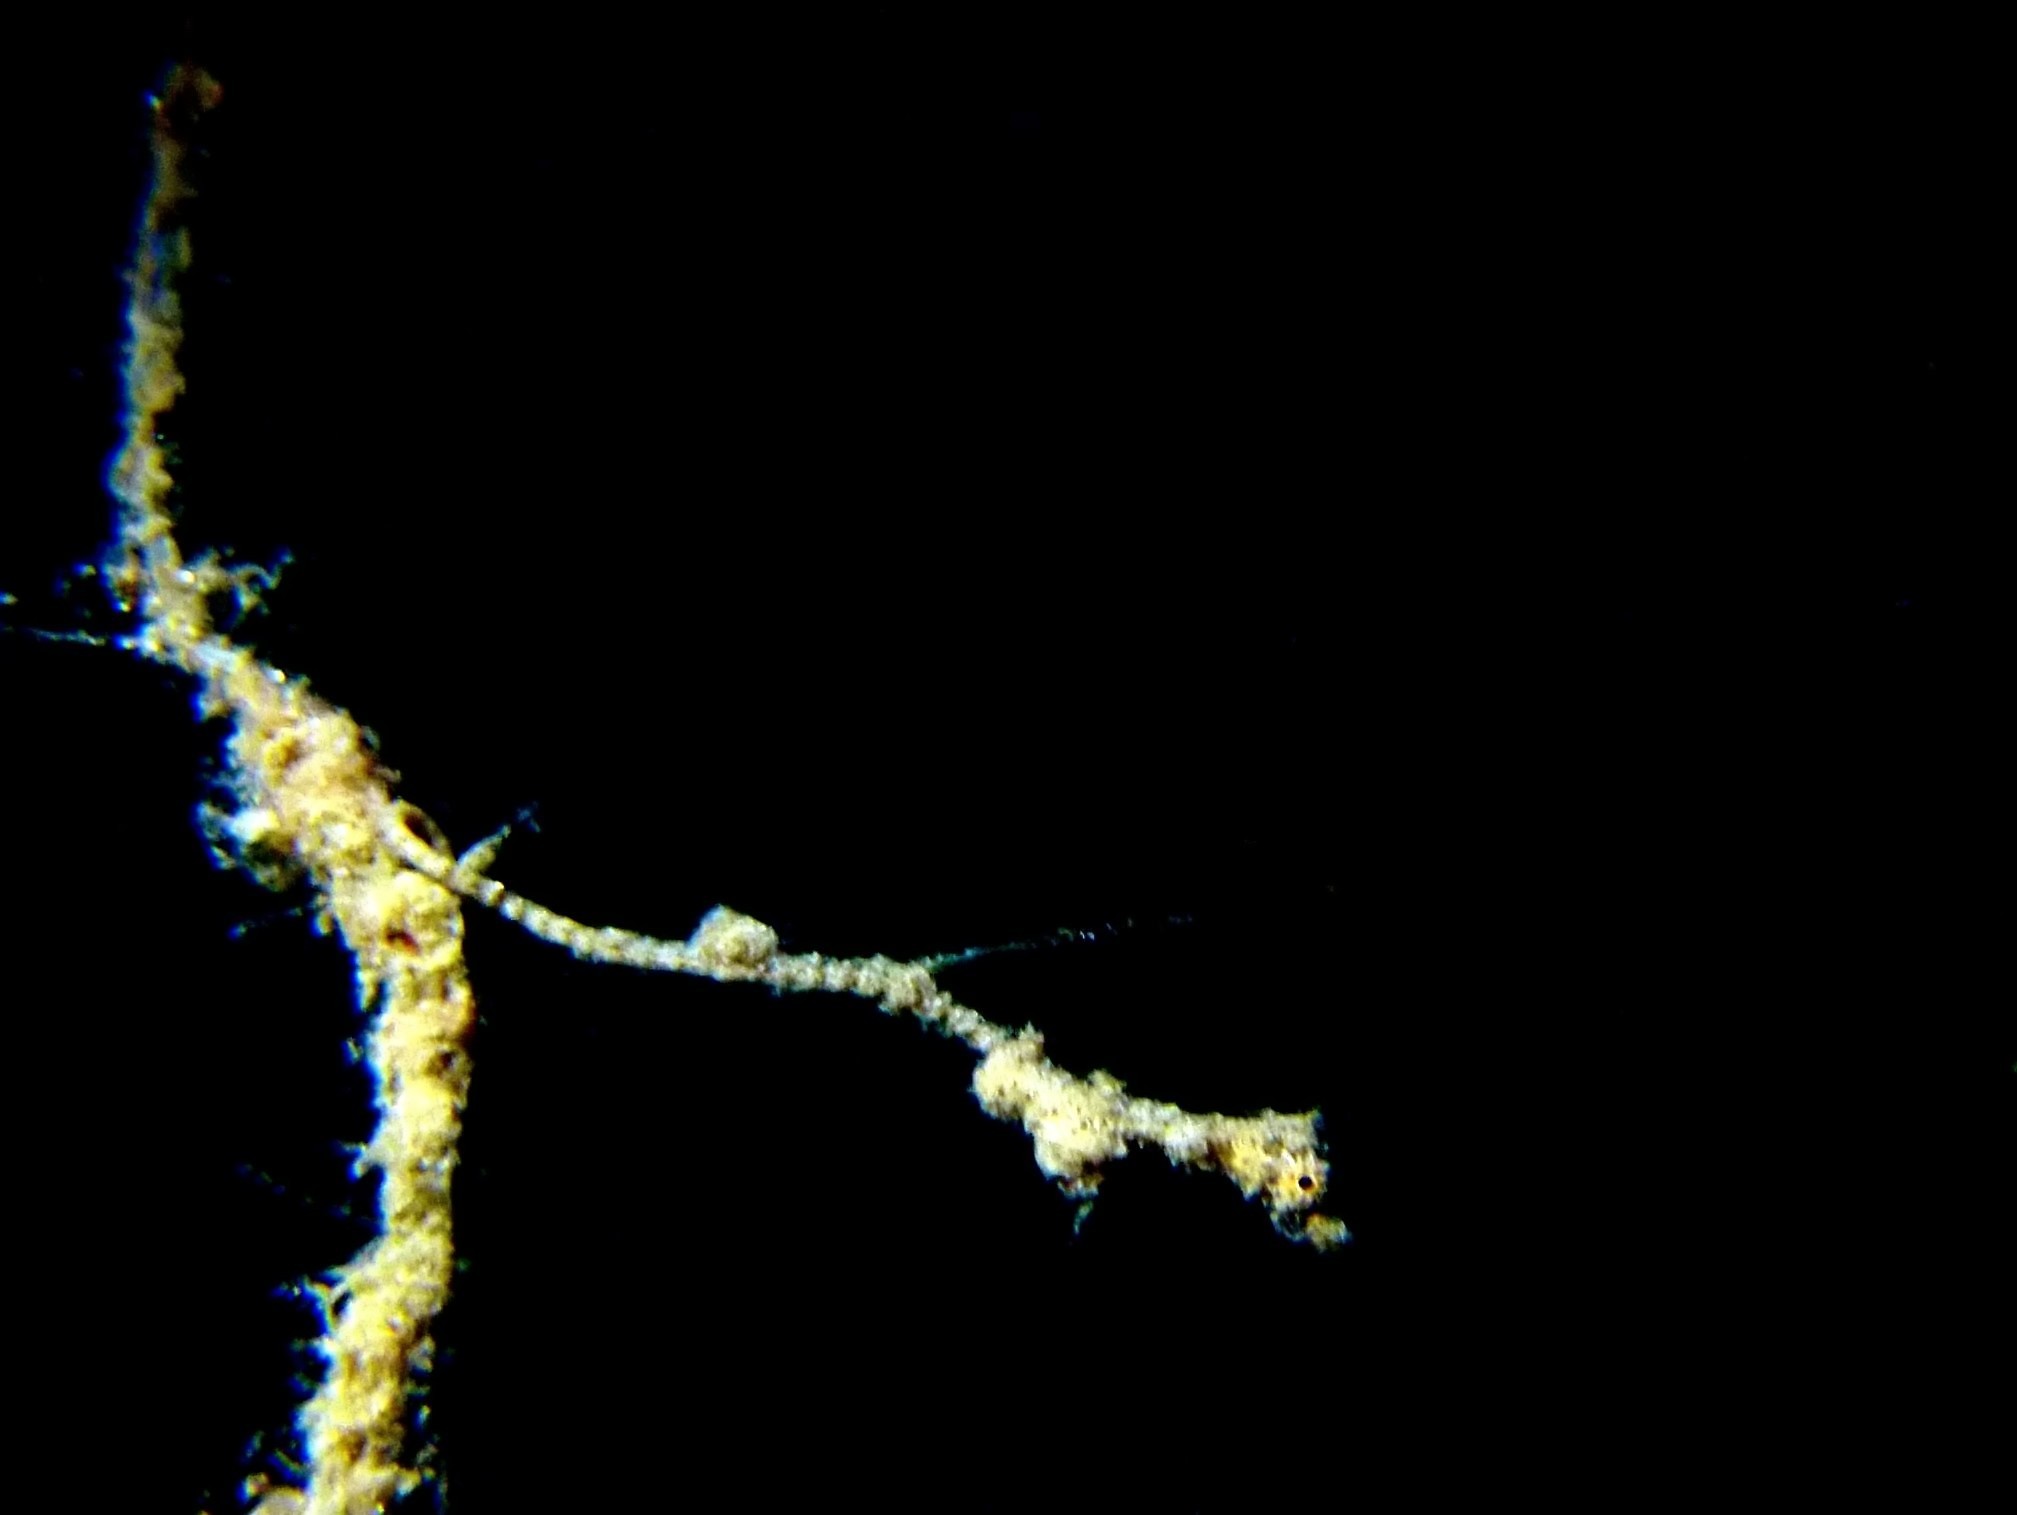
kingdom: Animalia
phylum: Chordata
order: Syngnathiformes
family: Syngnathidae
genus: Kyonemichthys
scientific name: Kyonemichthys rumengani
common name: Thread pipefish
